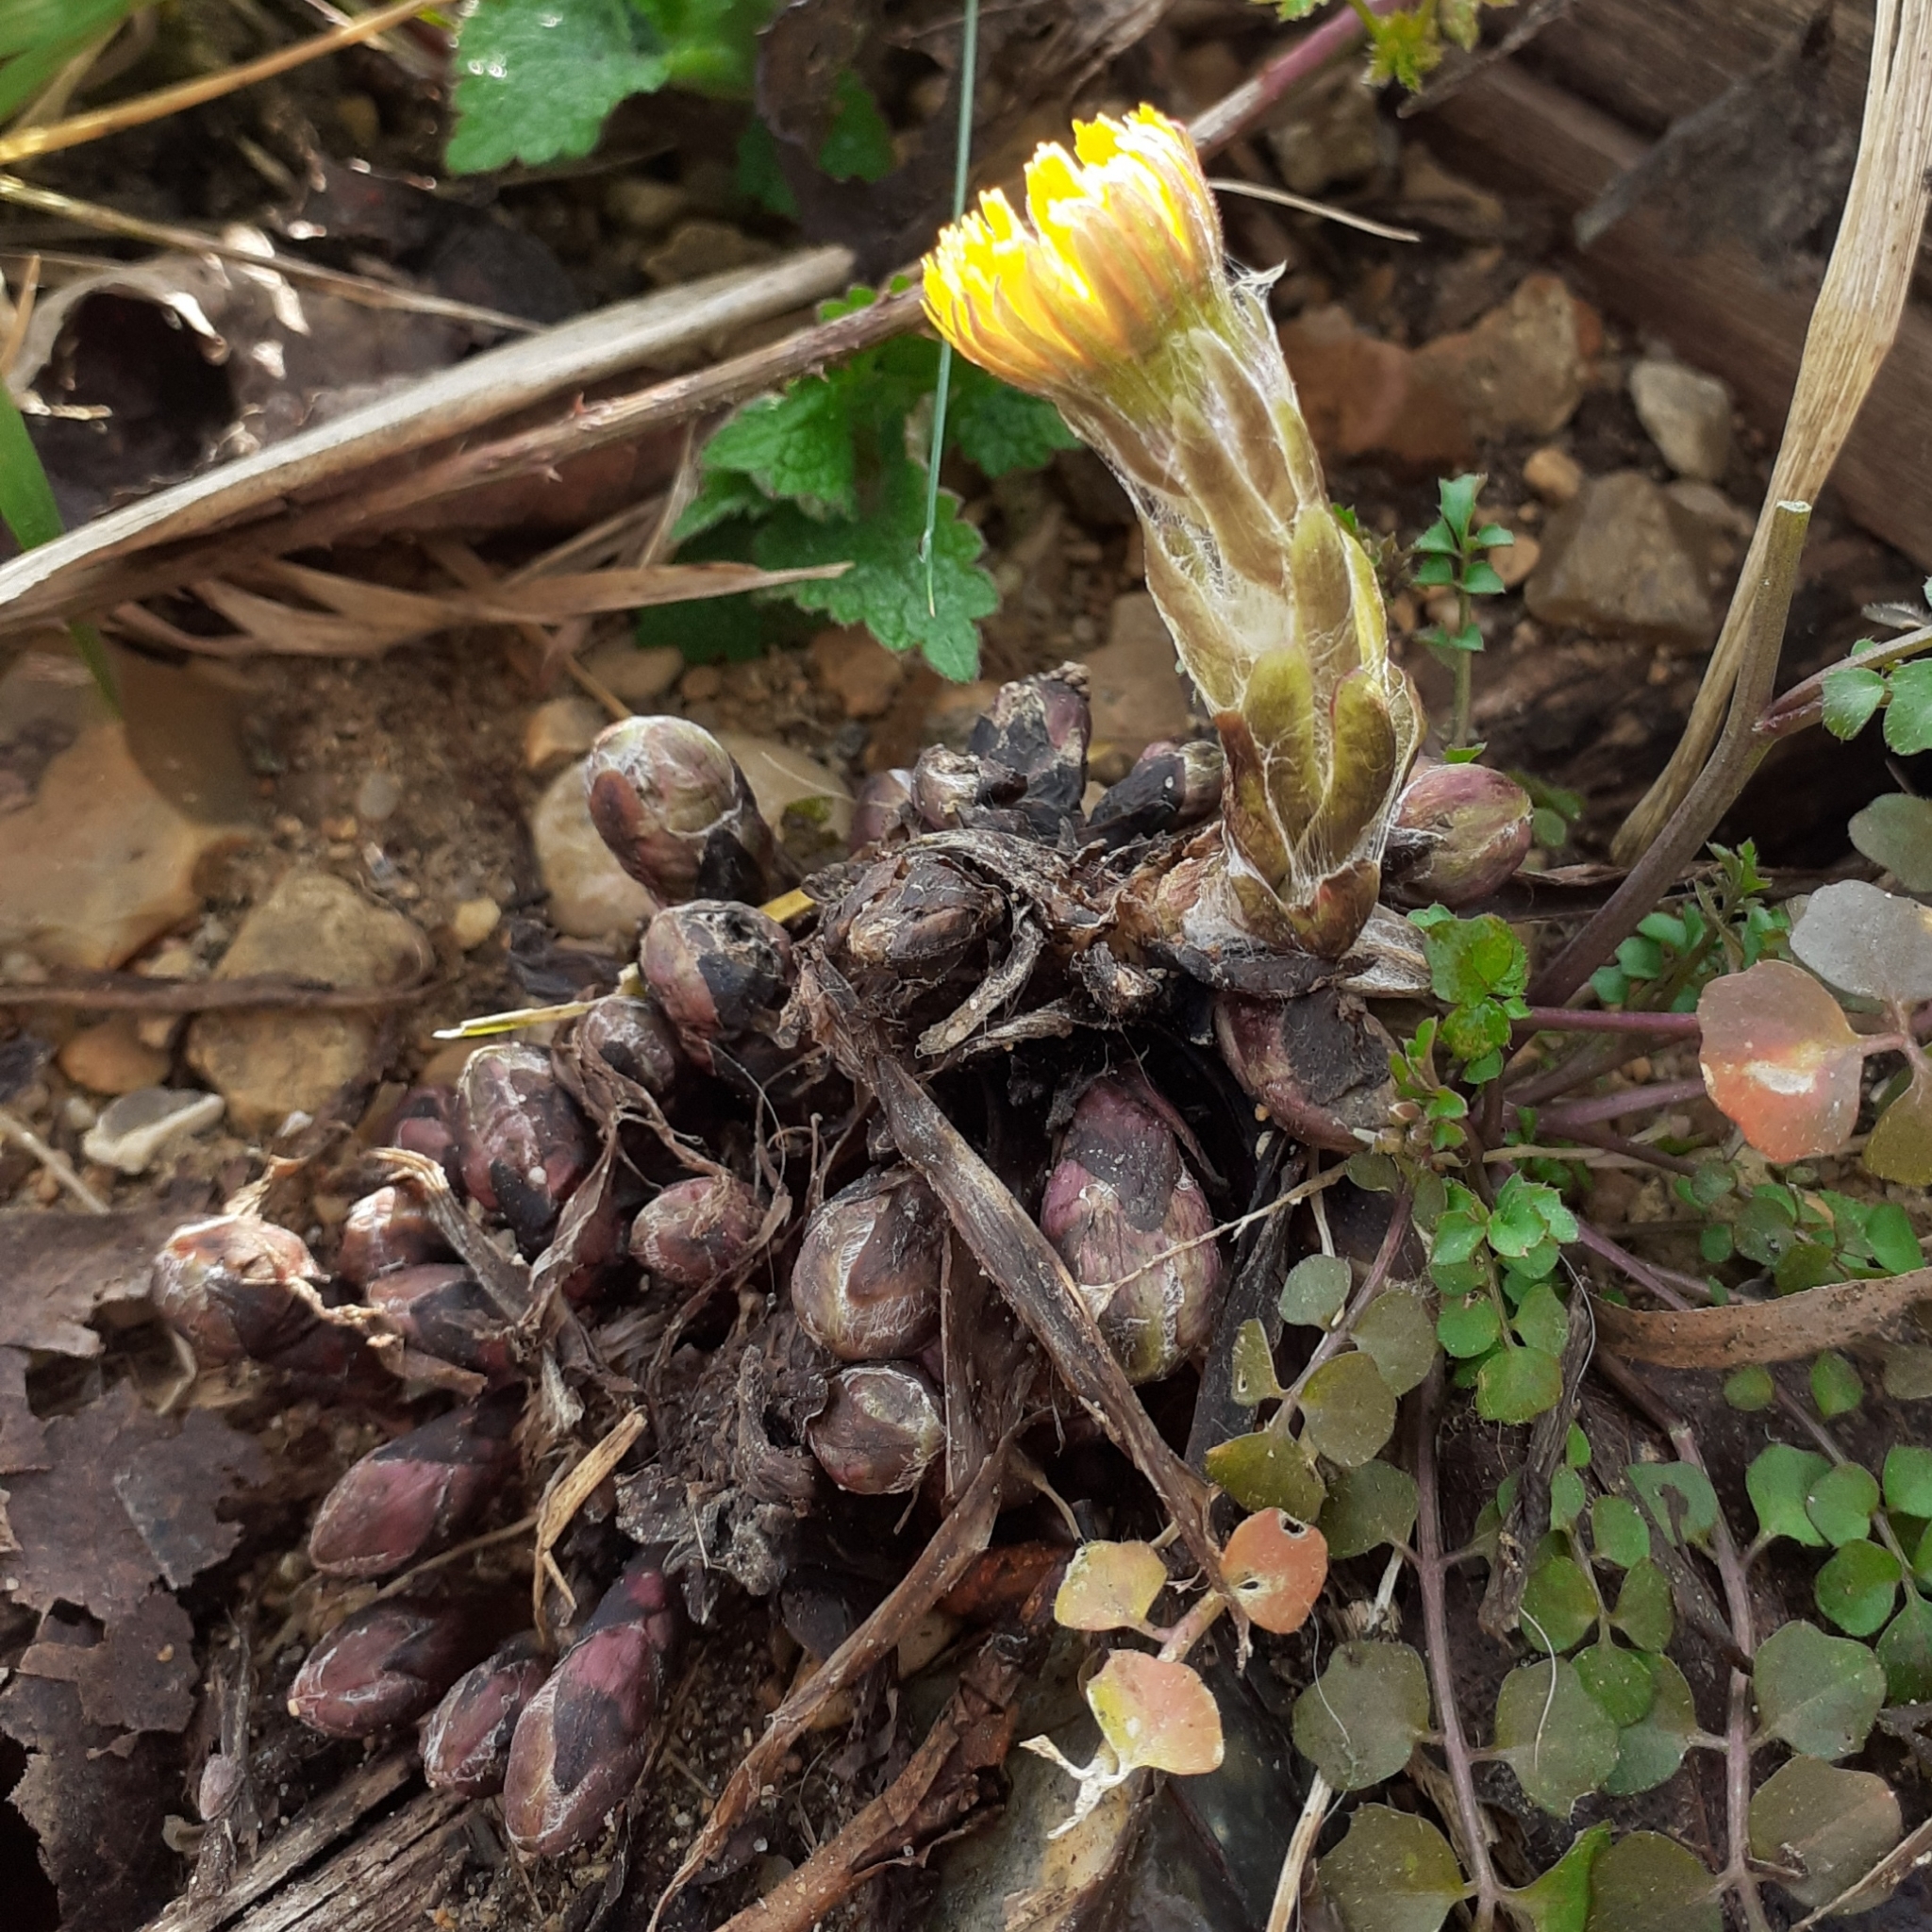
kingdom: Plantae
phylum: Tracheophyta
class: Magnoliopsida
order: Asterales
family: Asteraceae
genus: Tussilago
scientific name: Tussilago farfara
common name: Coltsfoot
